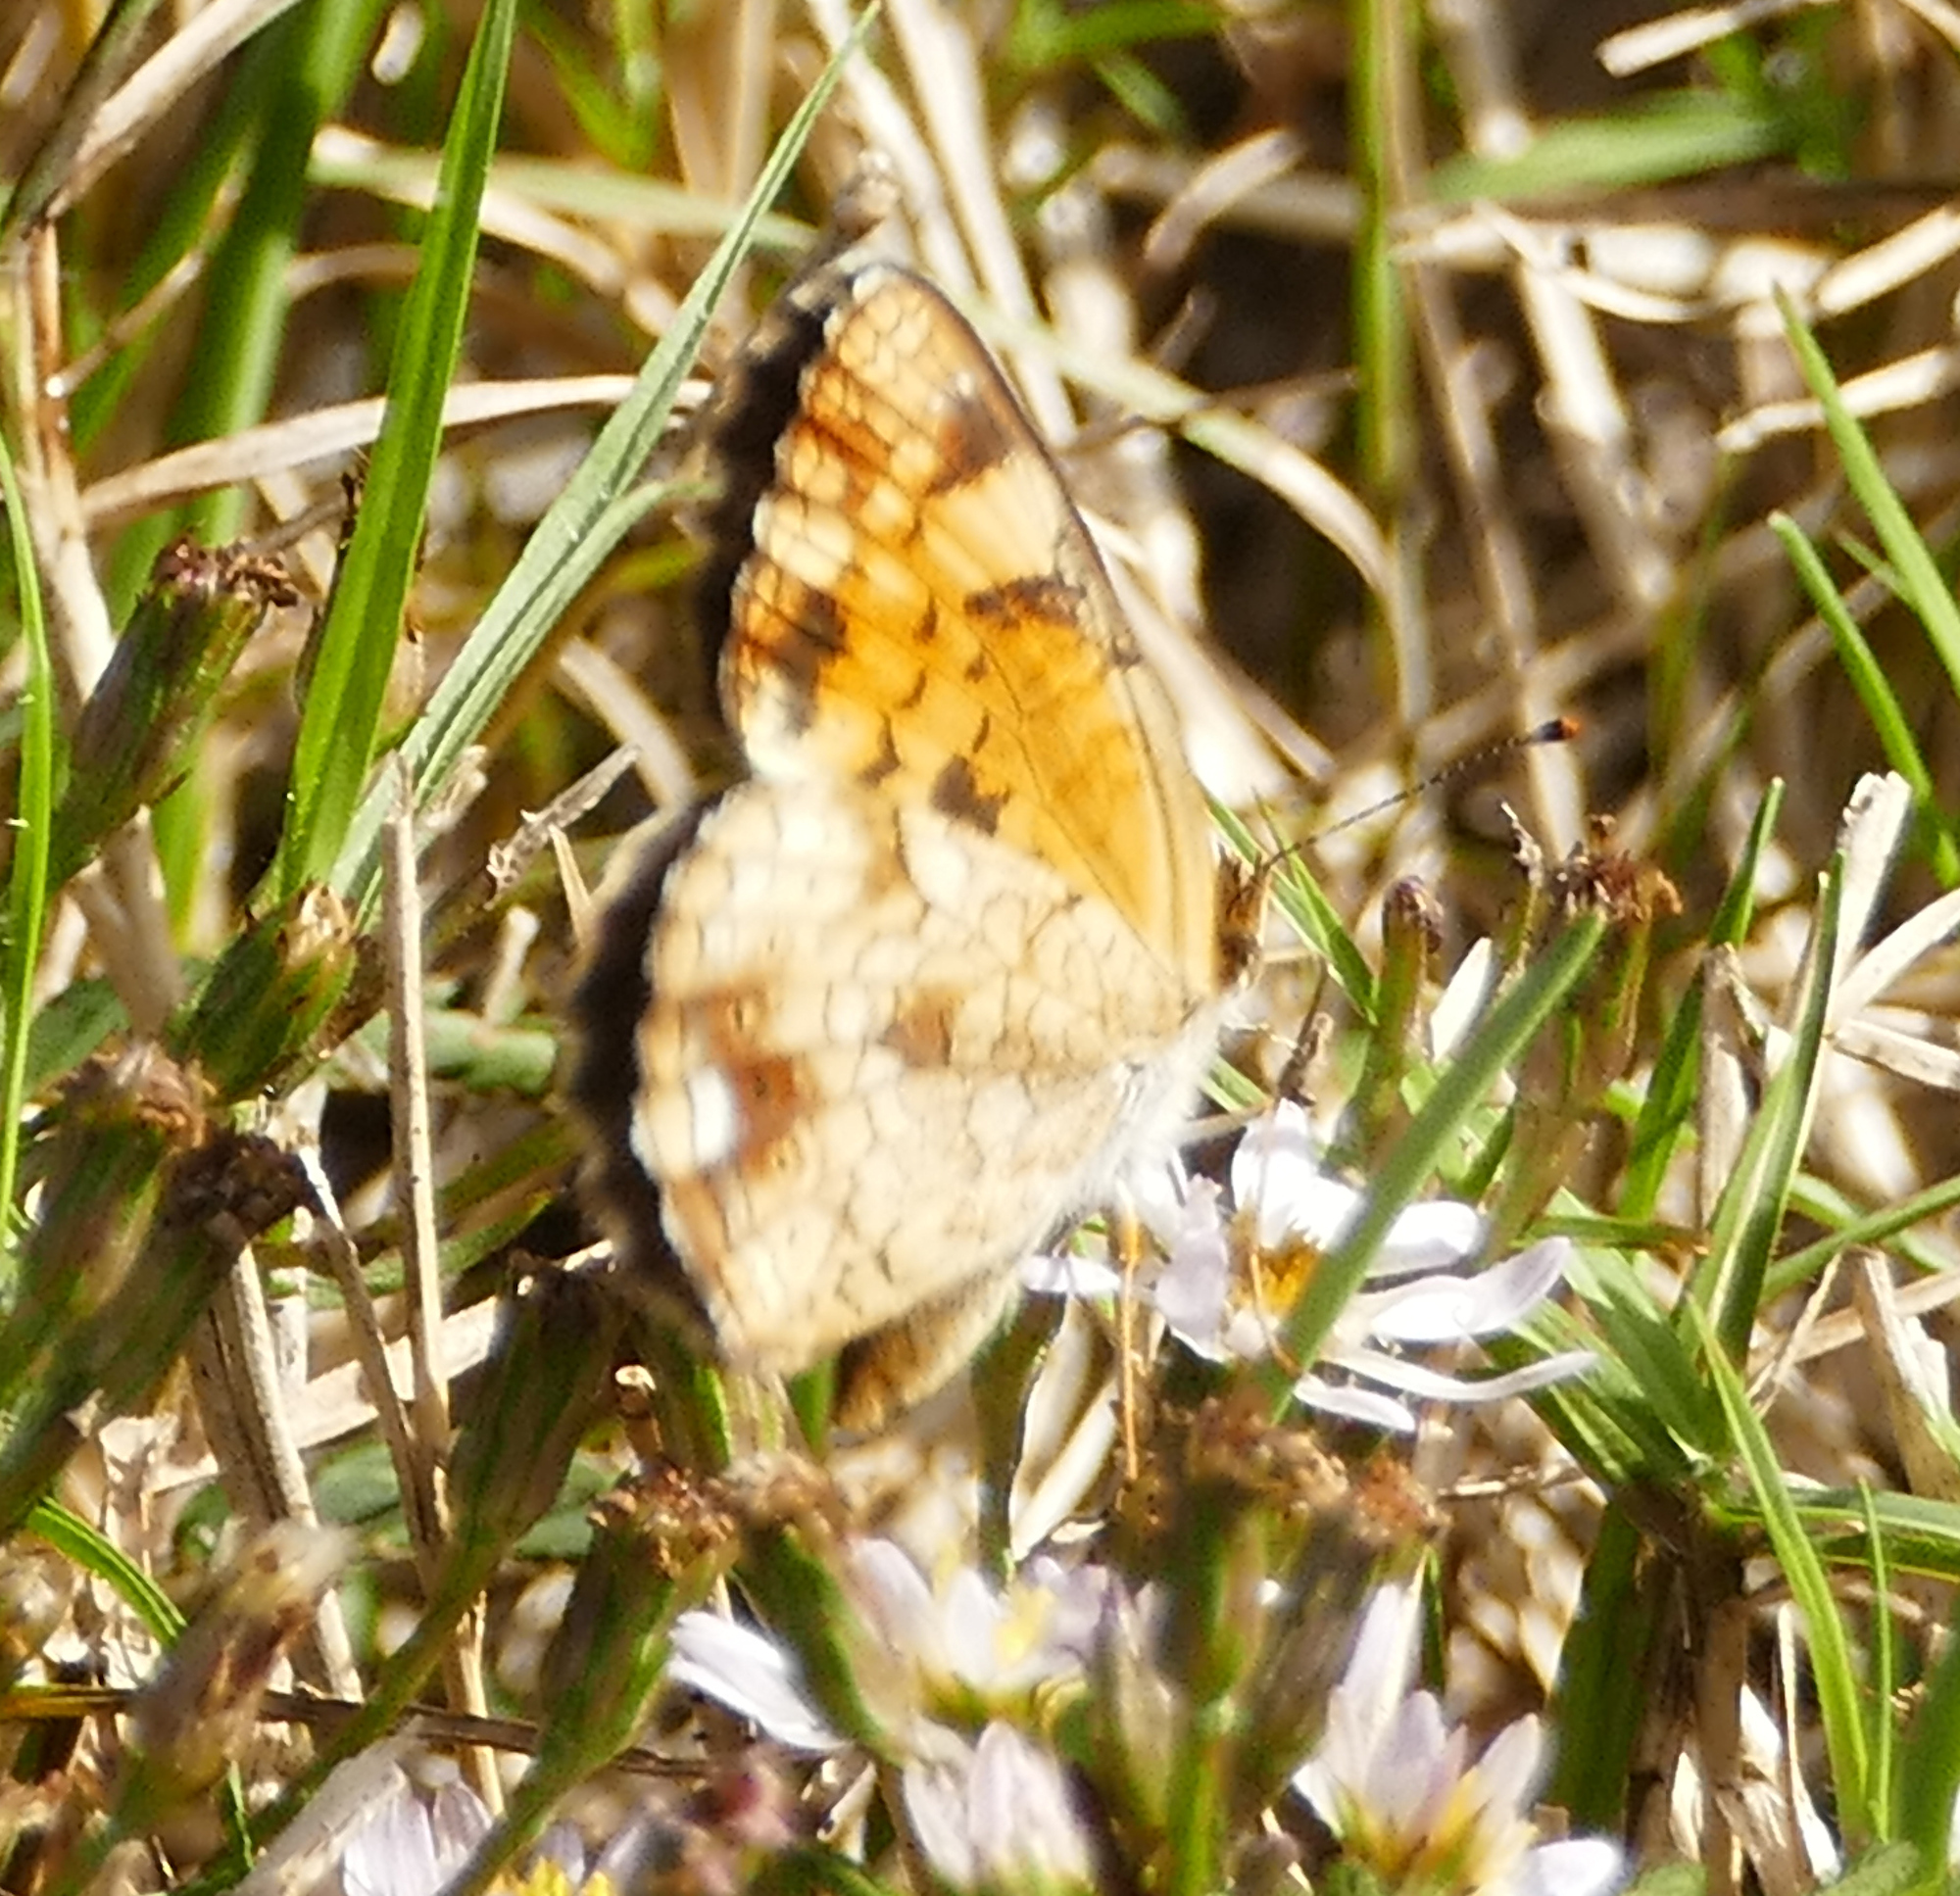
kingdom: Animalia
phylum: Arthropoda
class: Insecta
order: Lepidoptera
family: Nymphalidae
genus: Phyciodes
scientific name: Phyciodes tharos
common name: Pearl crescent
